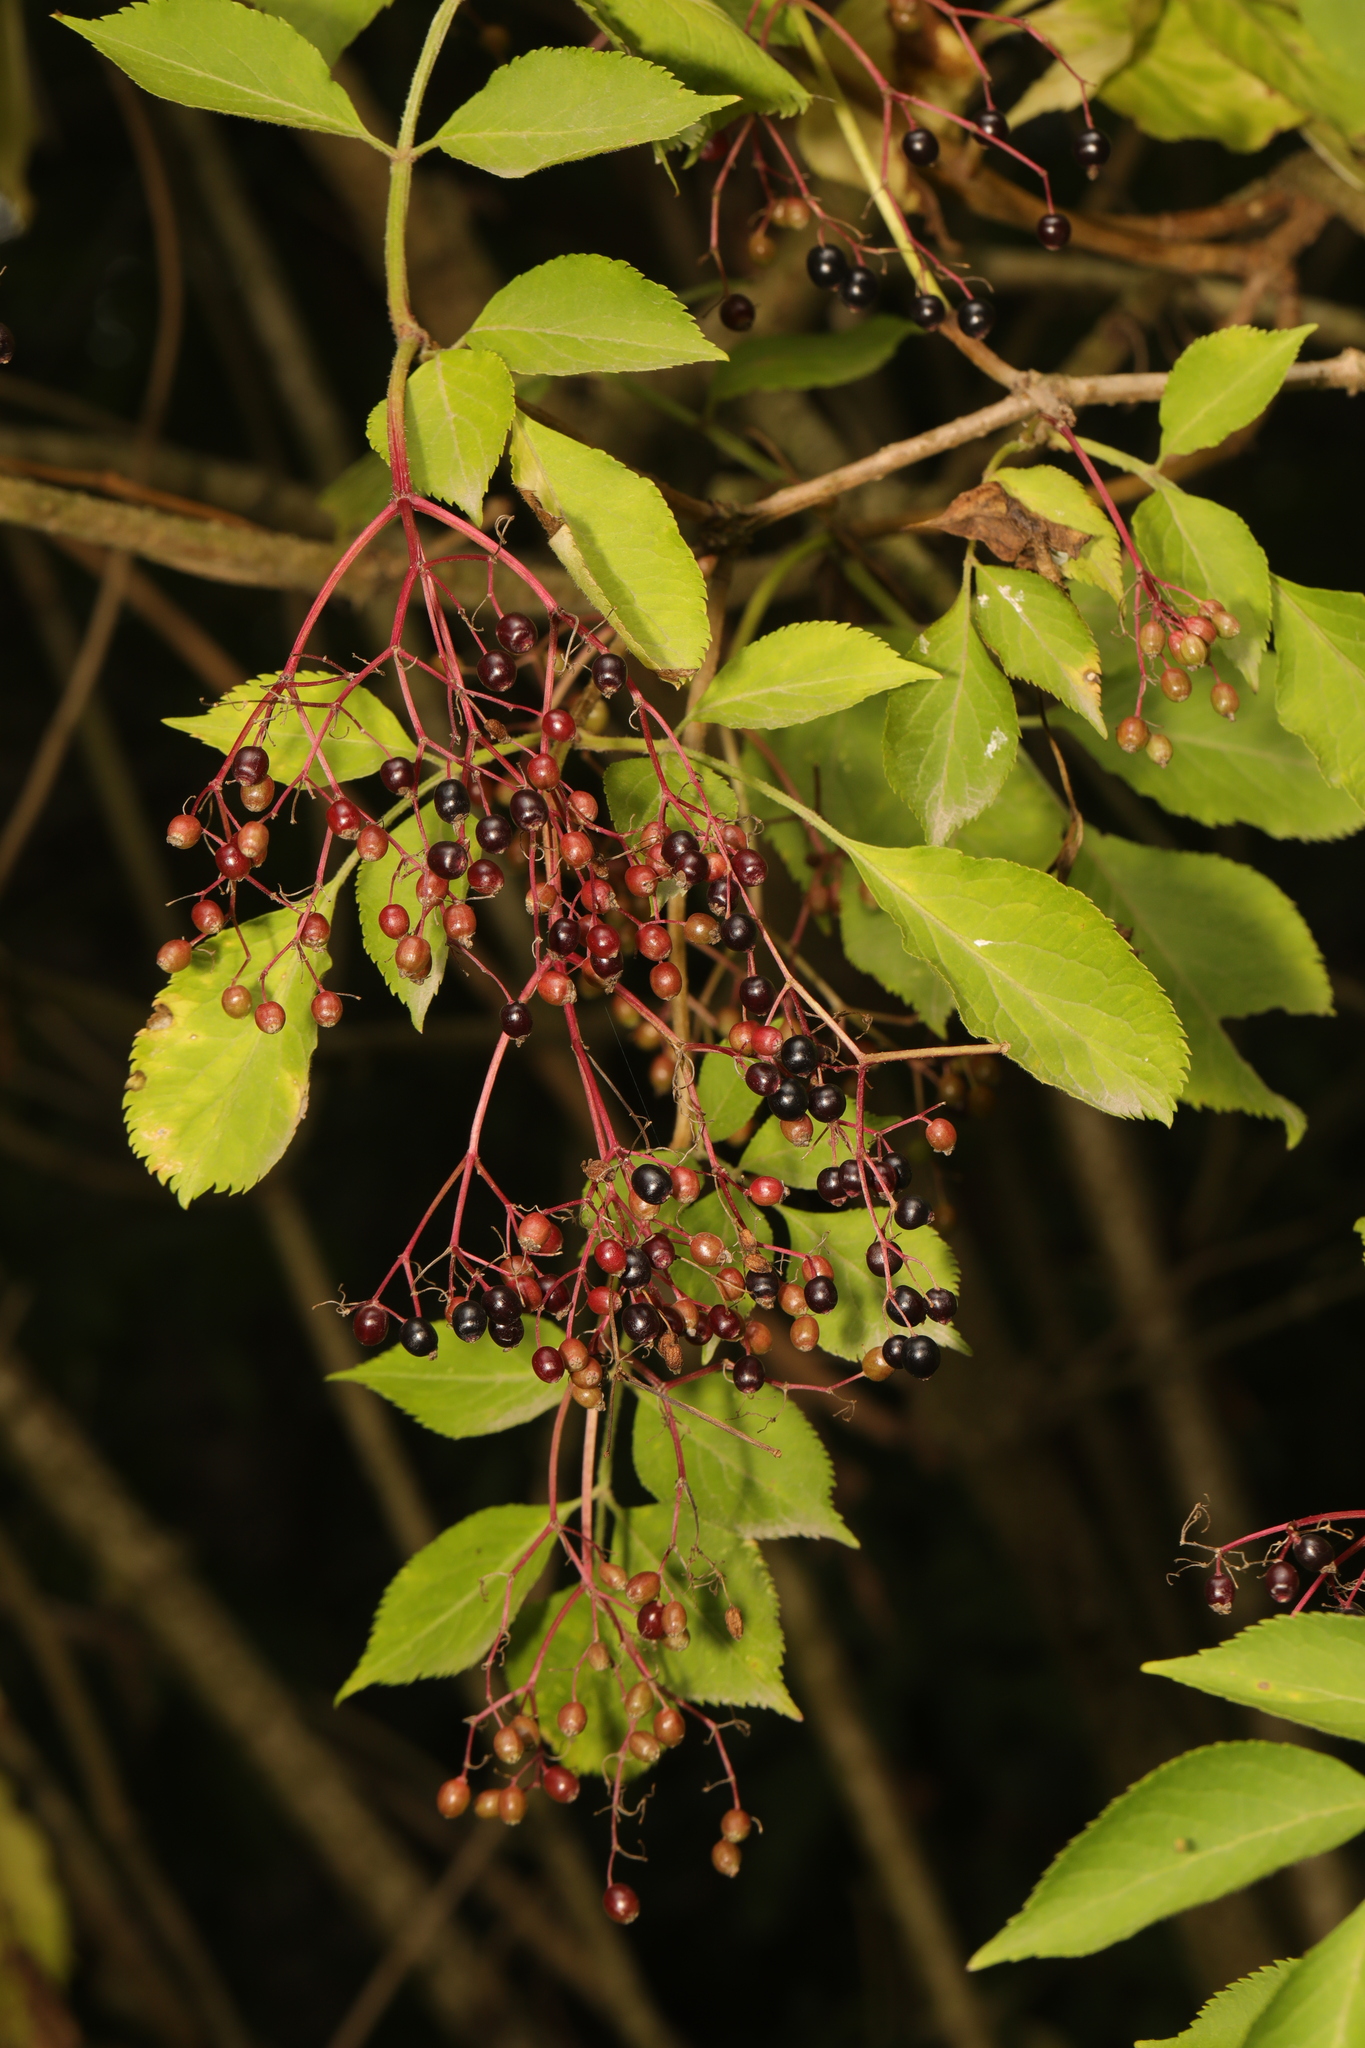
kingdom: Plantae
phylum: Tracheophyta
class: Magnoliopsida
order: Dipsacales
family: Viburnaceae
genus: Sambucus
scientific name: Sambucus nigra
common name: Elder
